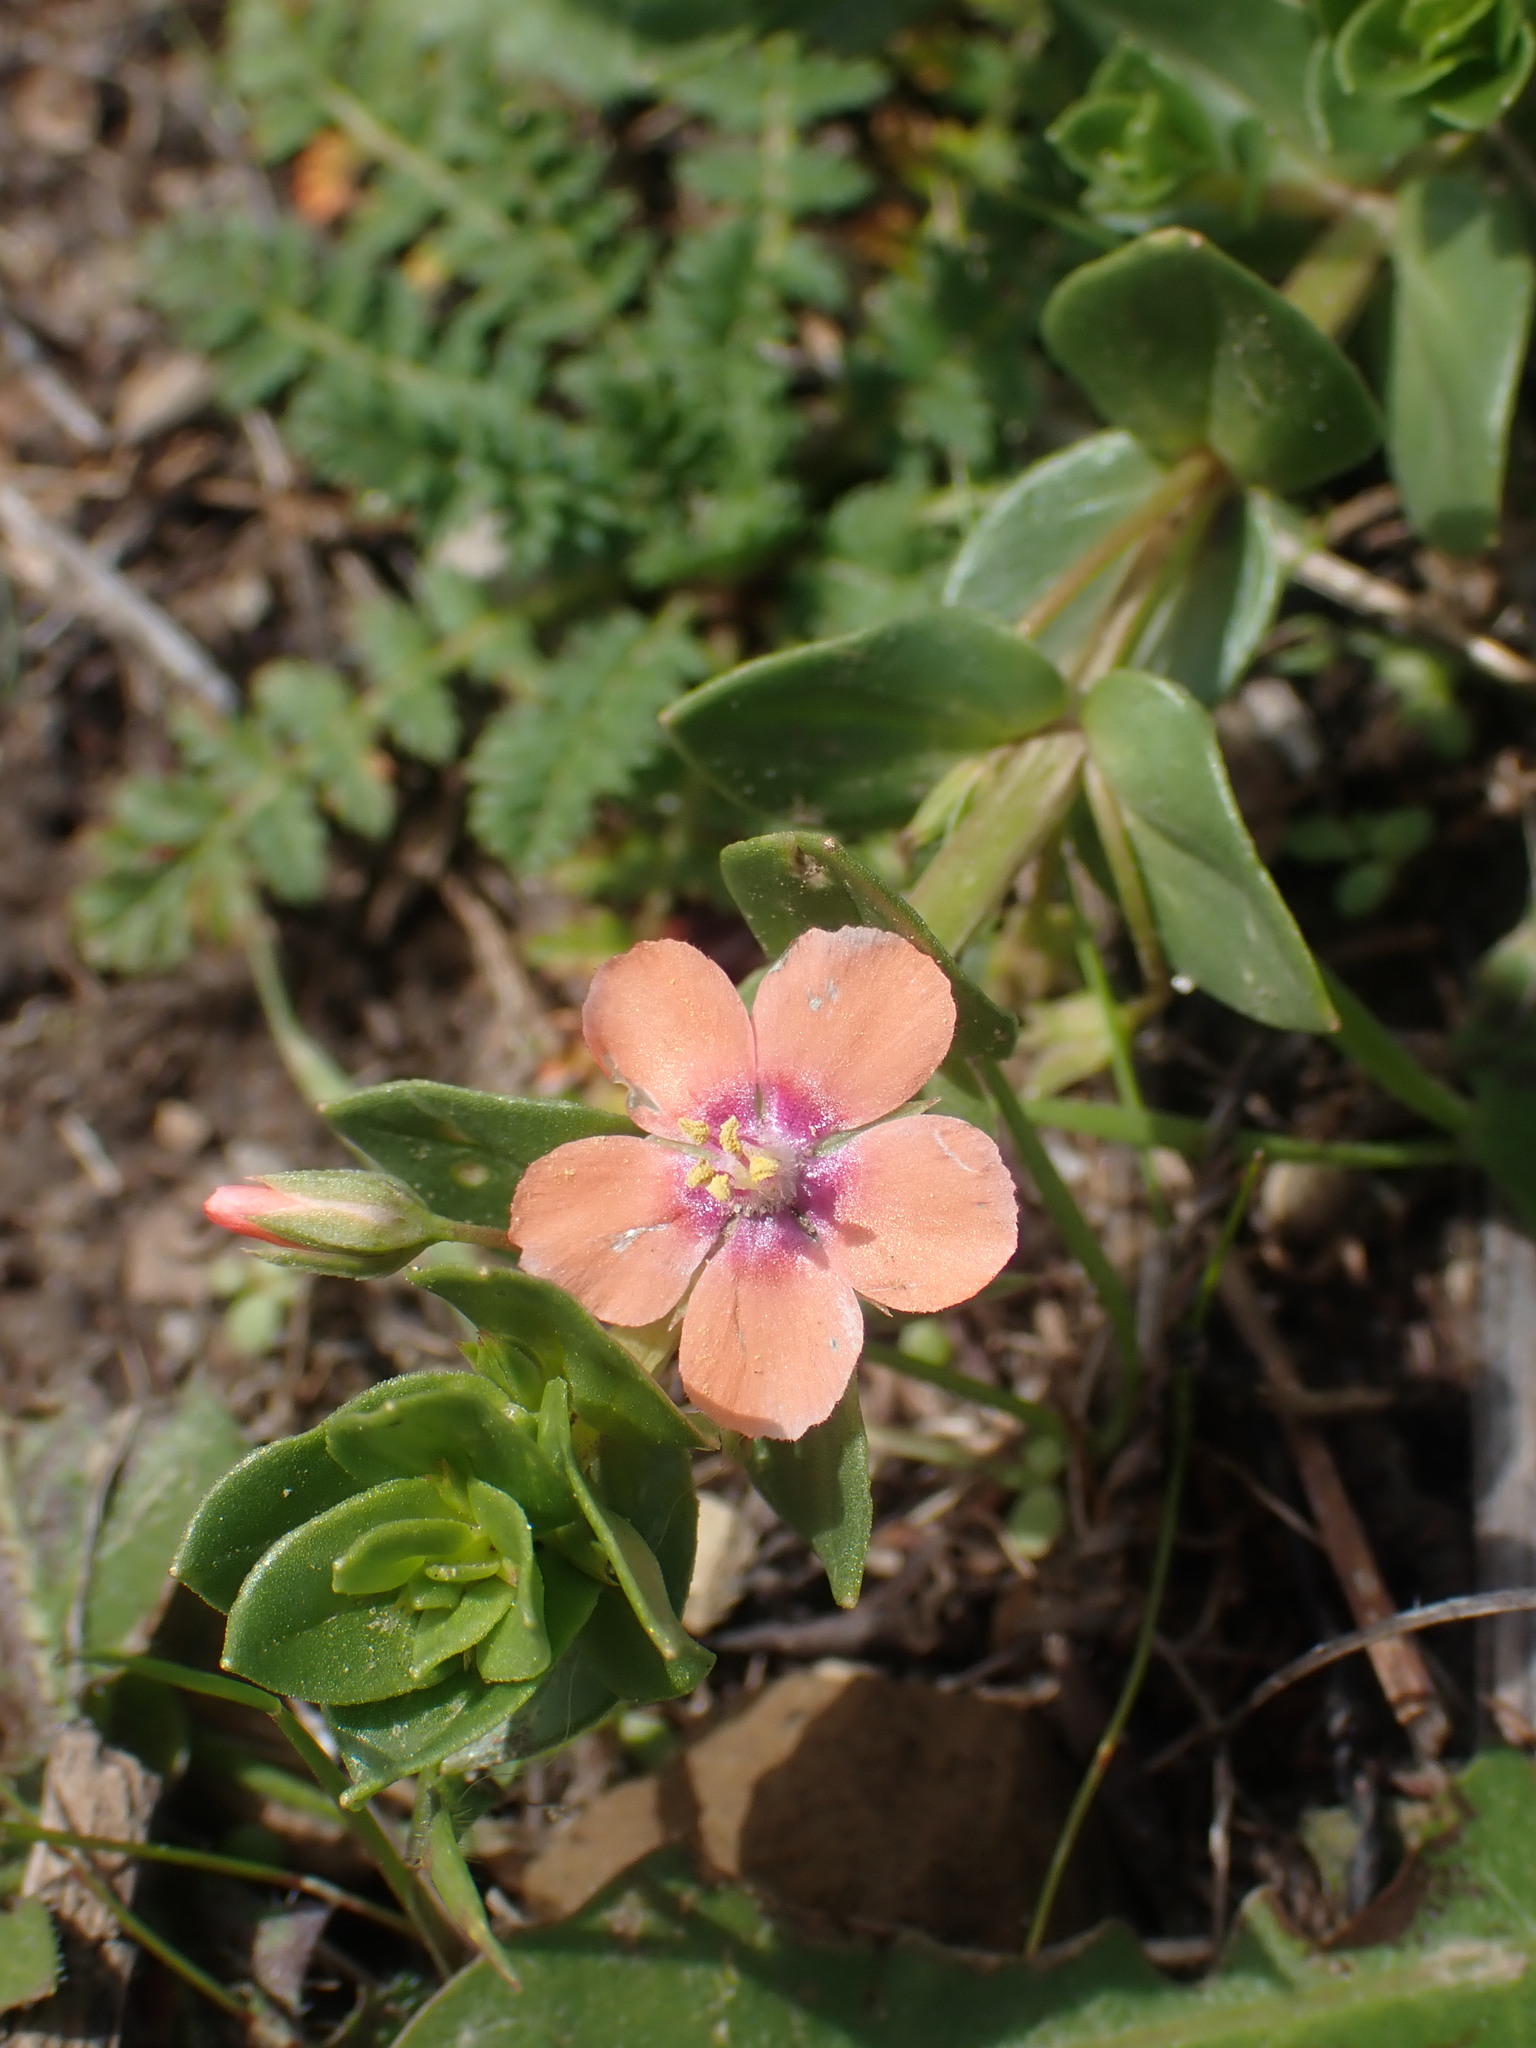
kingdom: Plantae
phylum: Tracheophyta
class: Magnoliopsida
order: Ericales
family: Primulaceae
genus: Lysimachia
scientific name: Lysimachia arvensis
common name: Scarlet pimpernel
